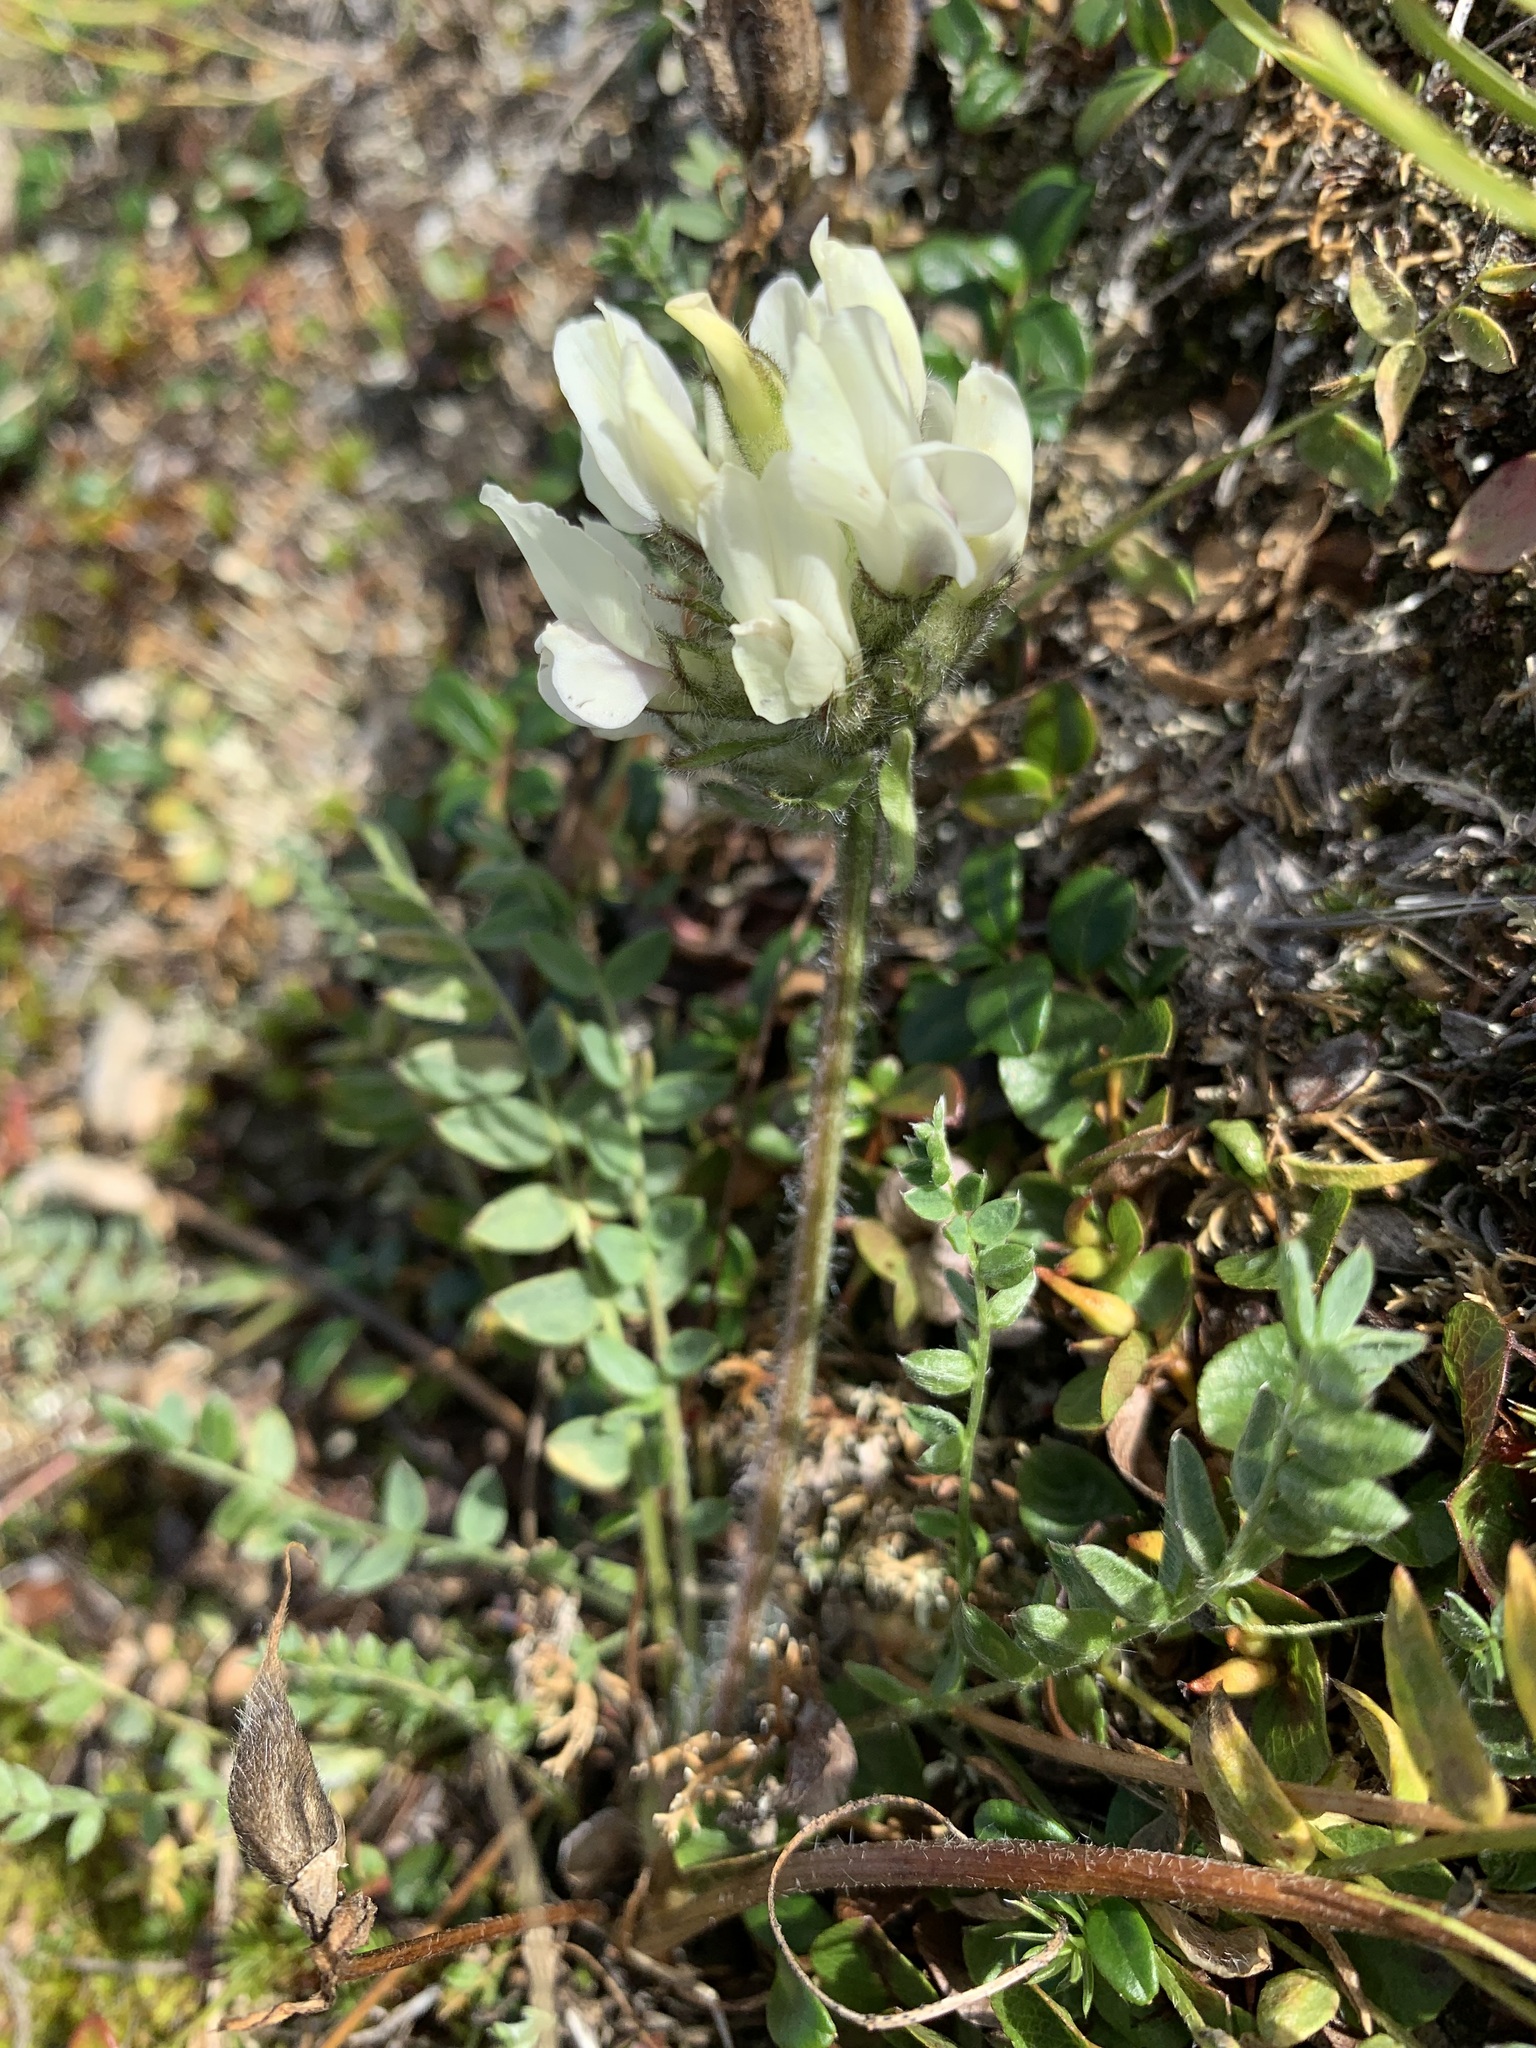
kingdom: Plantae
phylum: Tracheophyta
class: Magnoliopsida
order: Fabales
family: Fabaceae
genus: Oxytropis
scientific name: Oxytropis sordida
